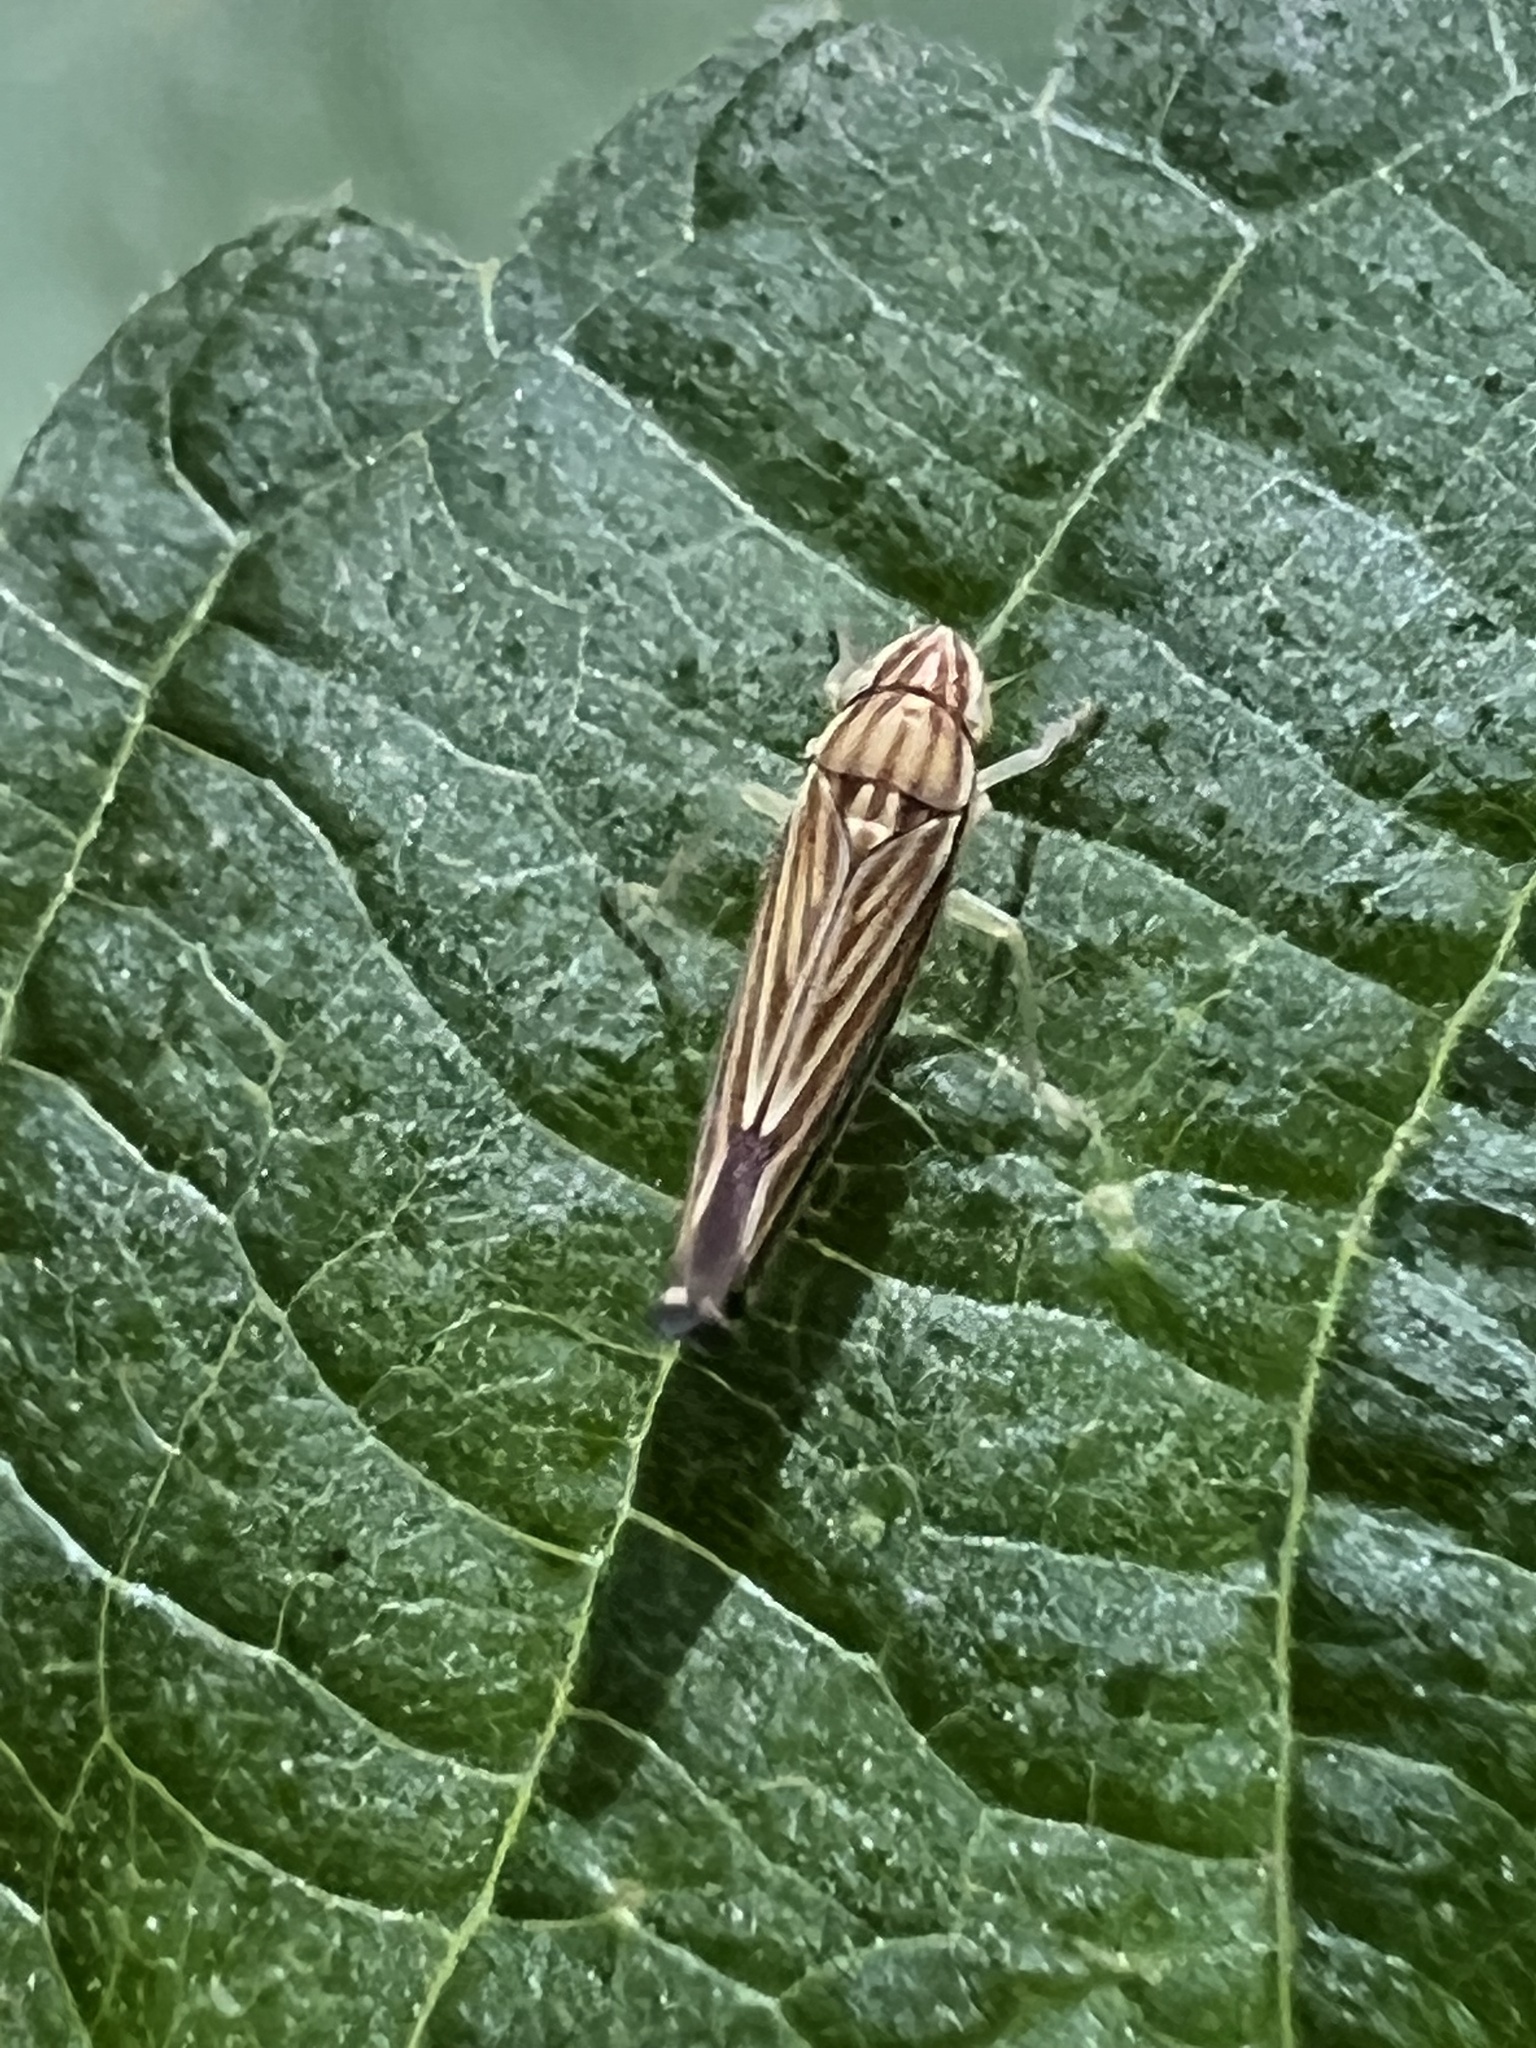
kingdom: Animalia
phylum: Arthropoda
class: Insecta
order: Hemiptera
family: Cicadellidae
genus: Sibovia
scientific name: Sibovia occatoria
